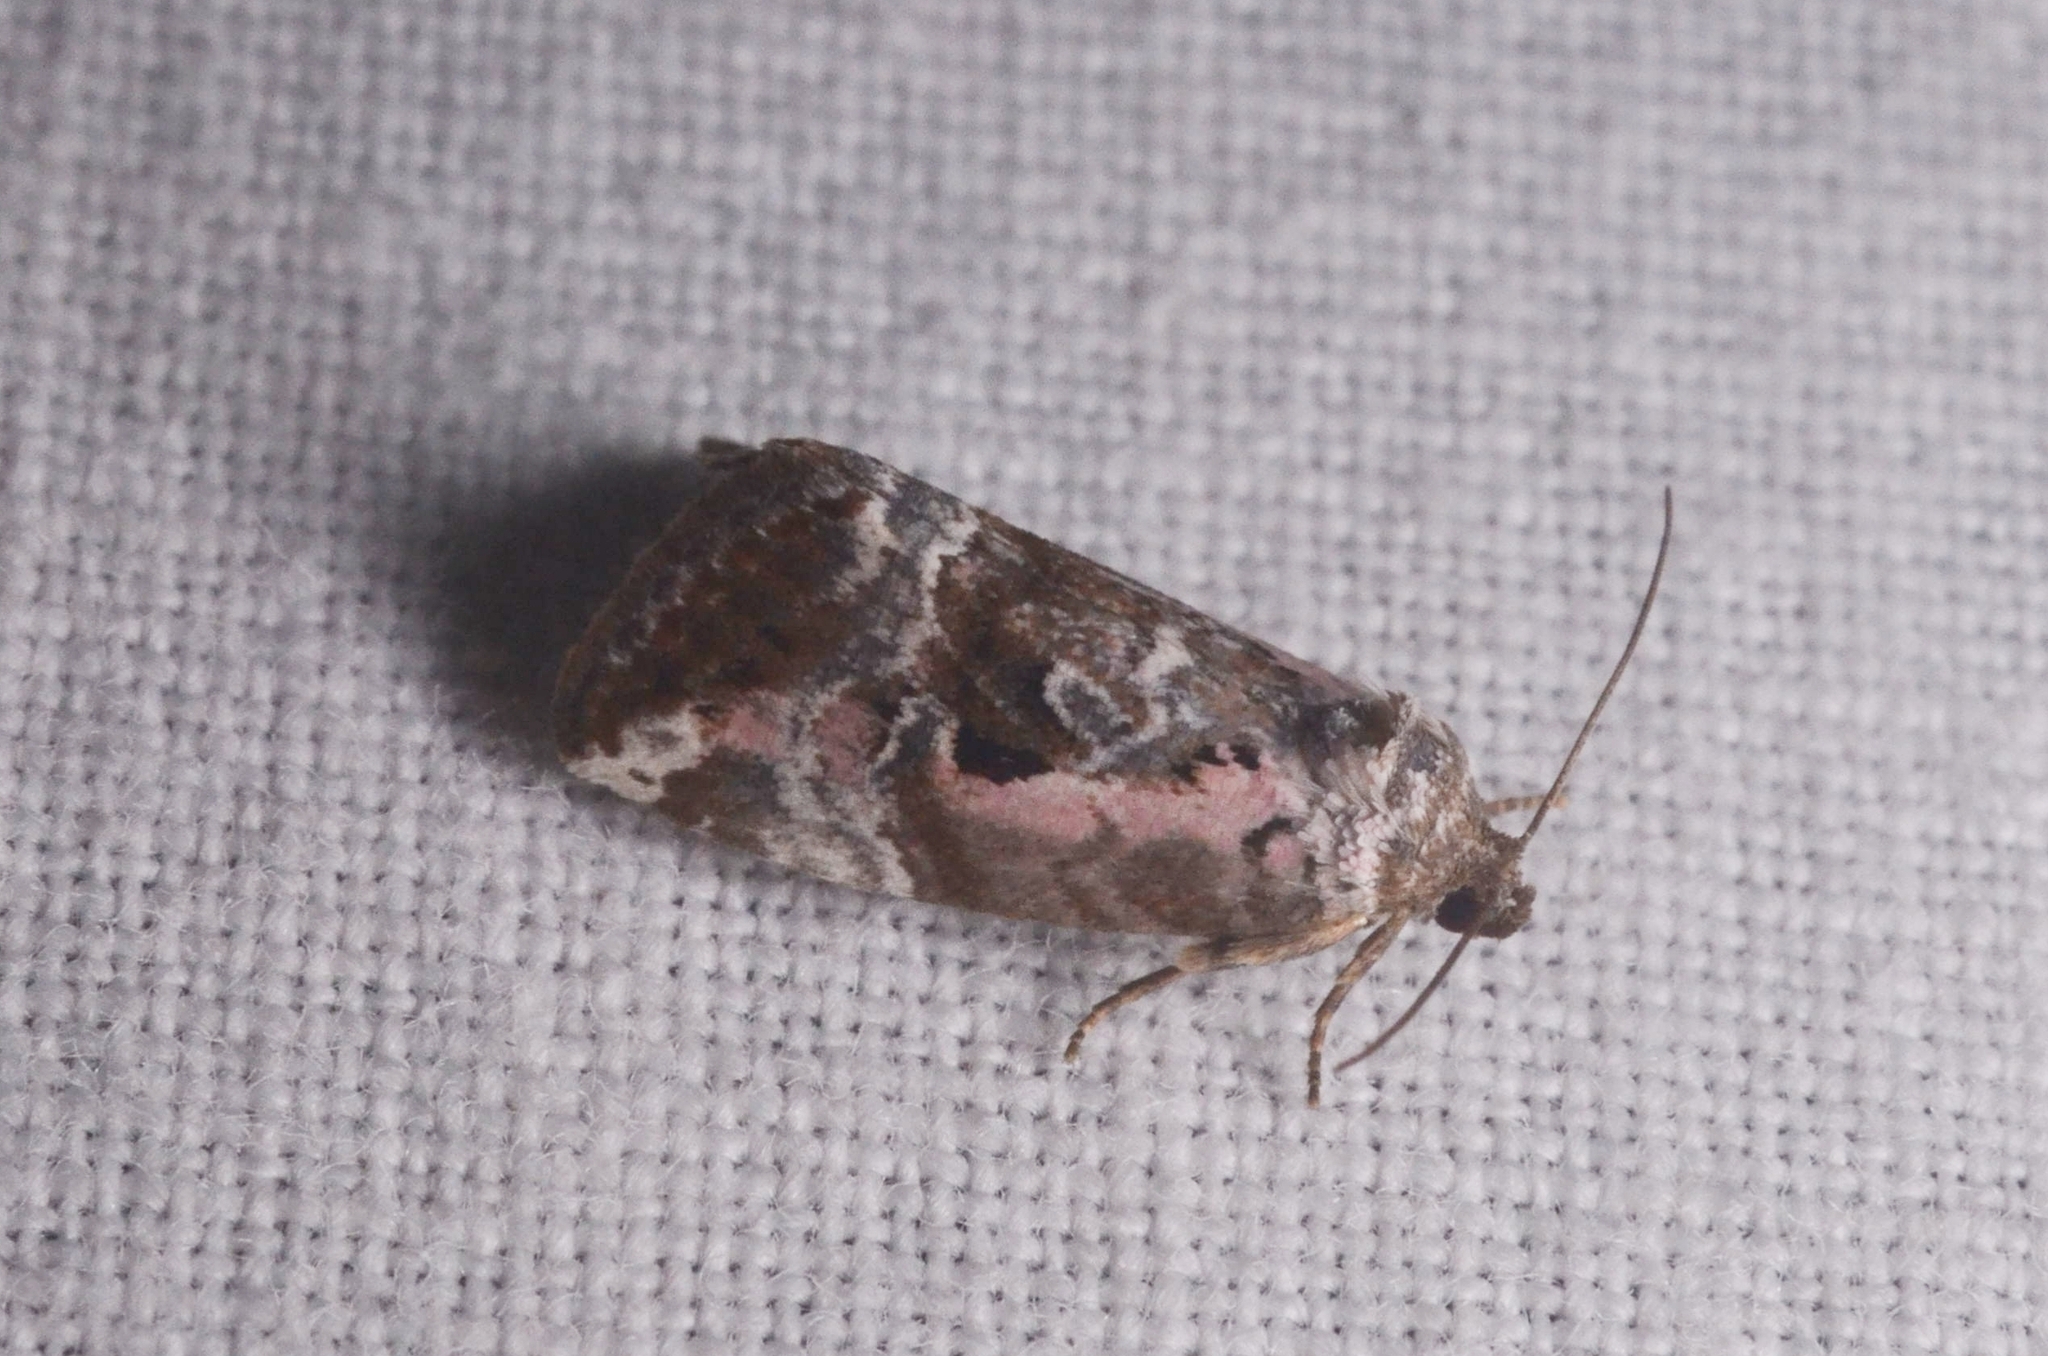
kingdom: Animalia
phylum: Arthropoda
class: Insecta
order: Lepidoptera
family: Noctuidae
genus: Elaphria
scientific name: Elaphria venustula
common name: Rosy marbled
